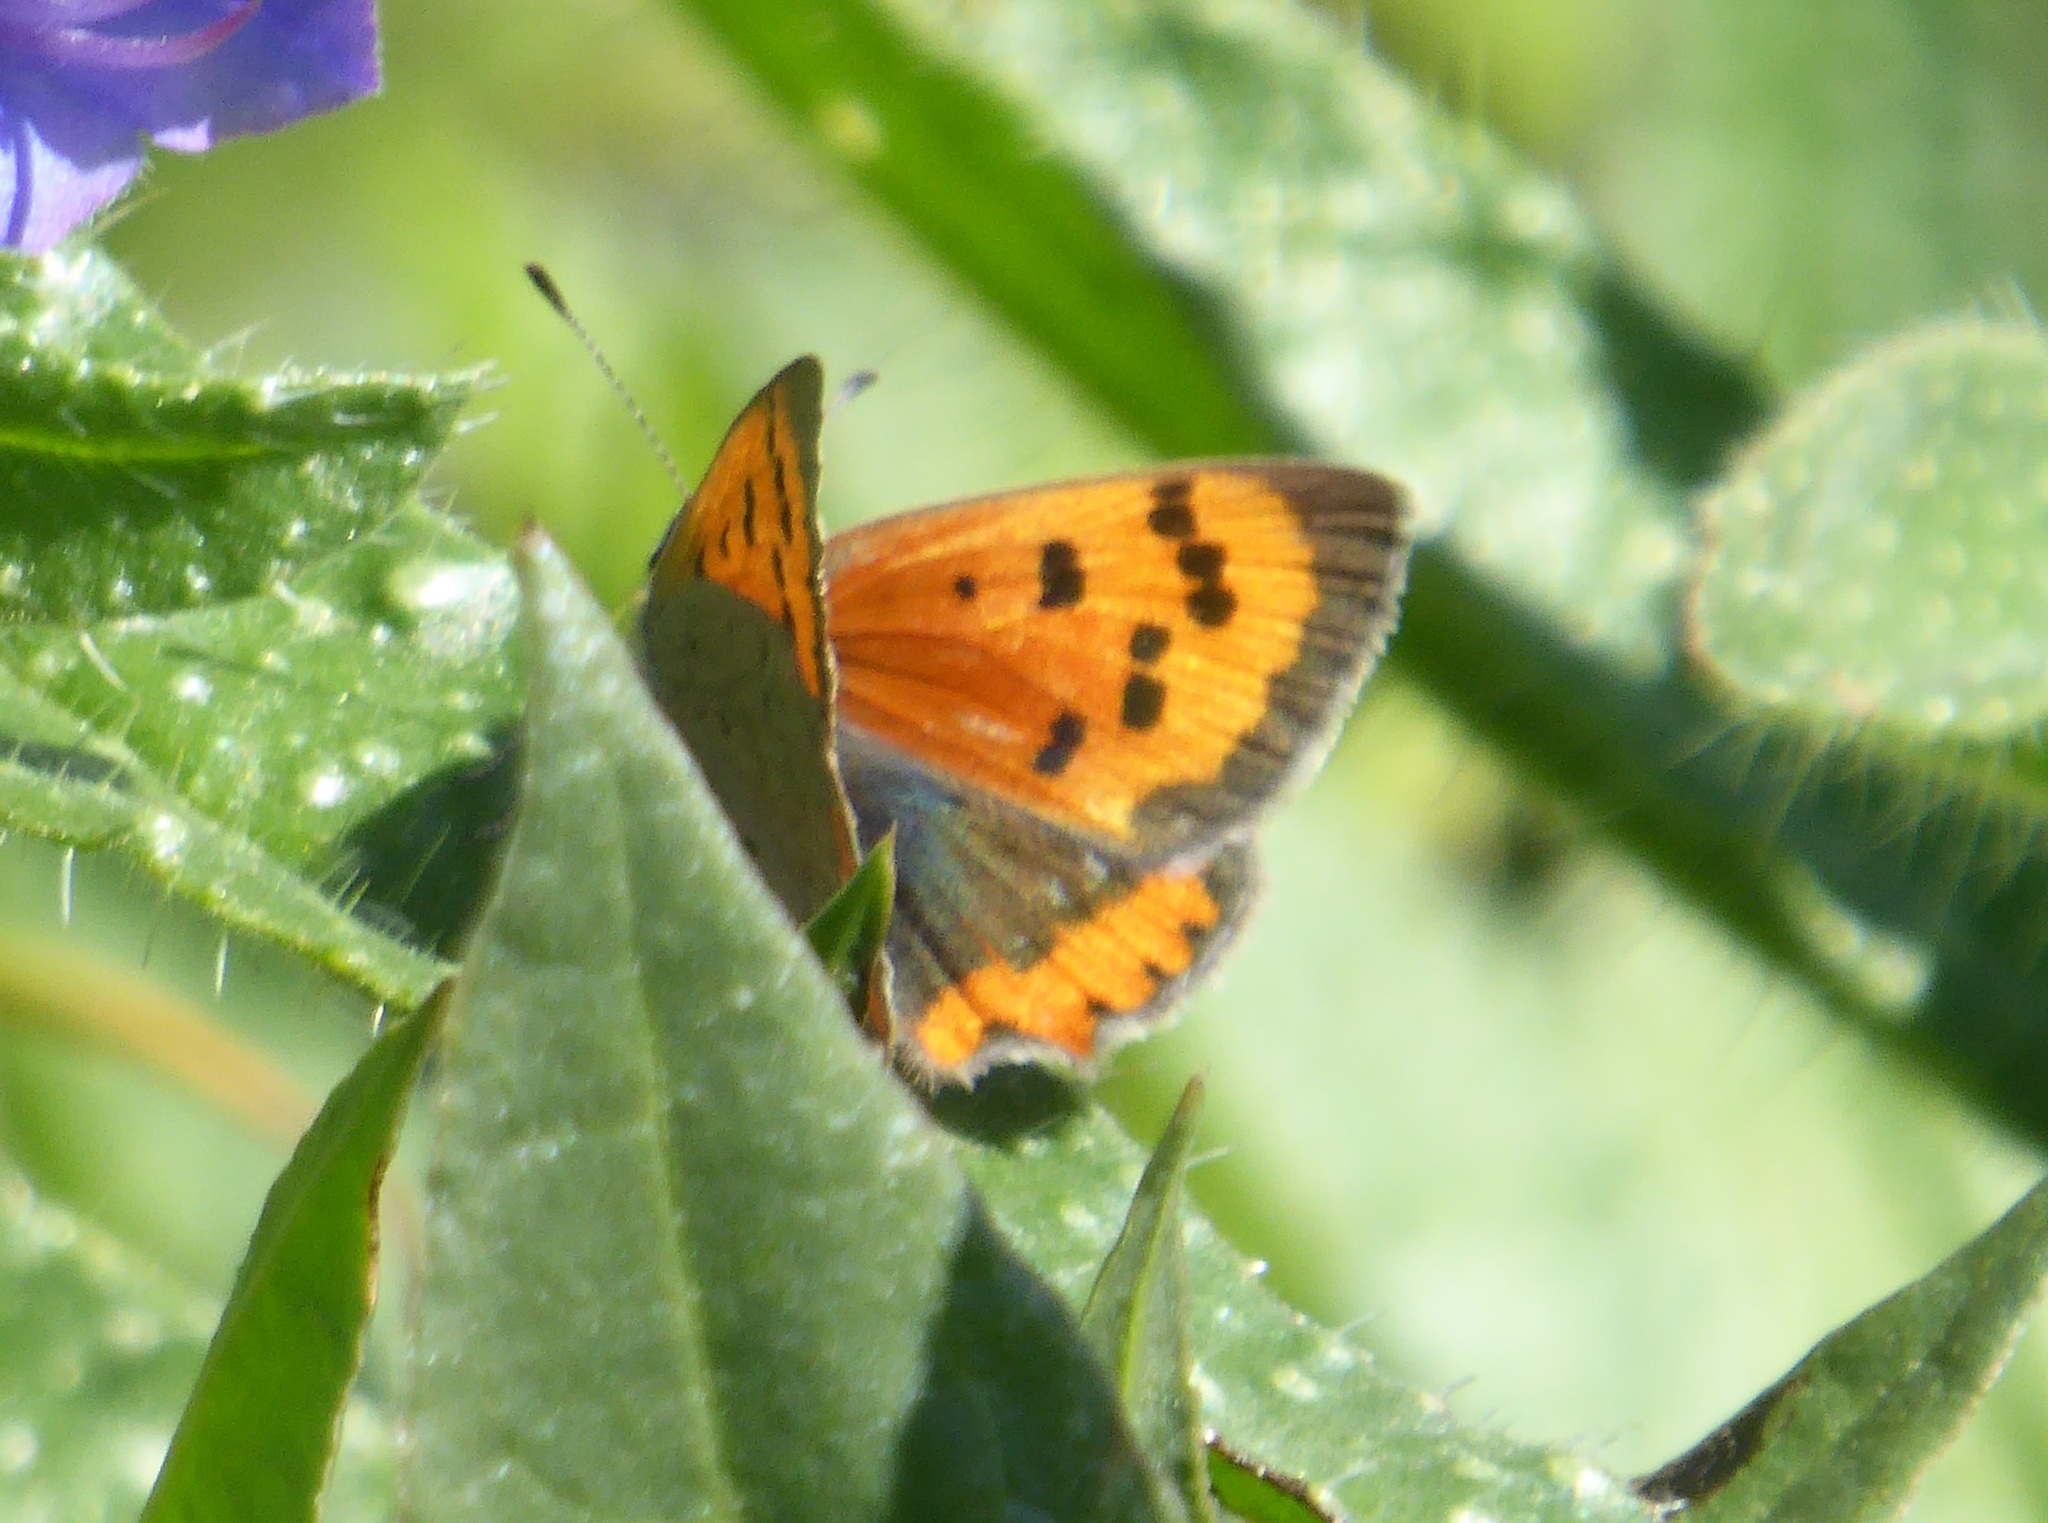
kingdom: Animalia
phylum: Arthropoda
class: Insecta
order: Lepidoptera
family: Lycaenidae
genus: Lycaena
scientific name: Lycaena phlaeas
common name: Small copper
